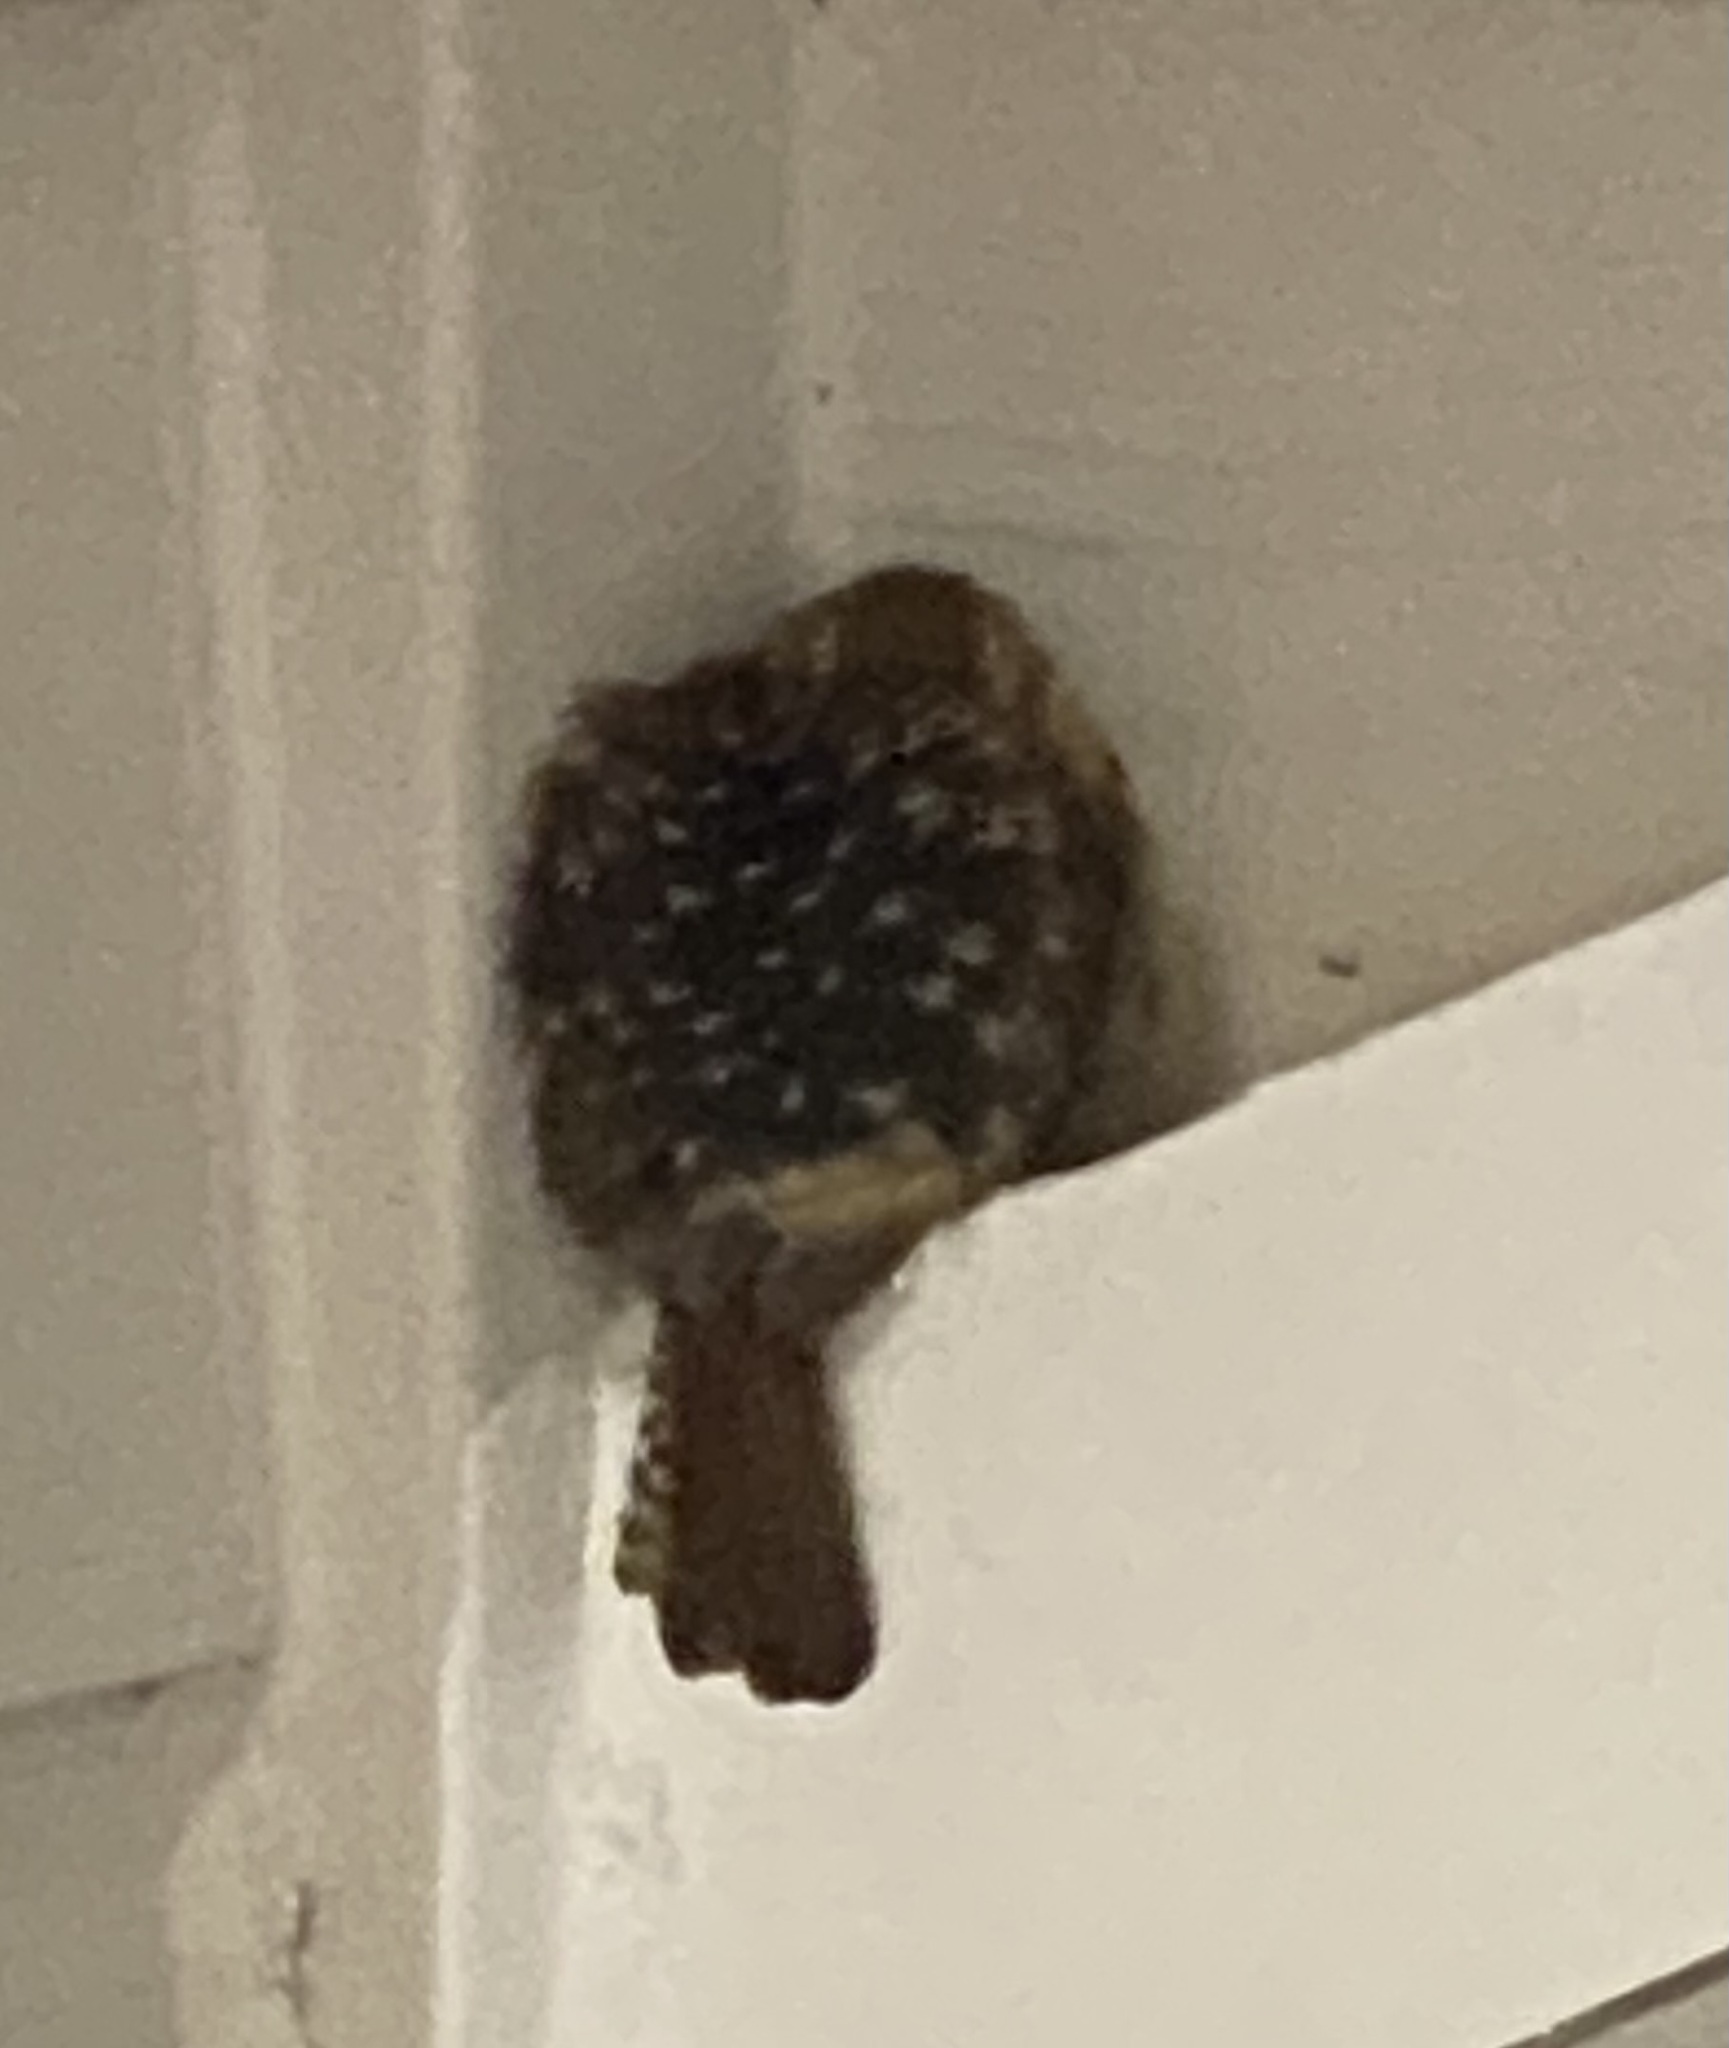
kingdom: Animalia
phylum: Chordata
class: Aves
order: Passeriformes
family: Troglodytidae
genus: Thryothorus
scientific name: Thryothorus ludovicianus
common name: Carolina wren
